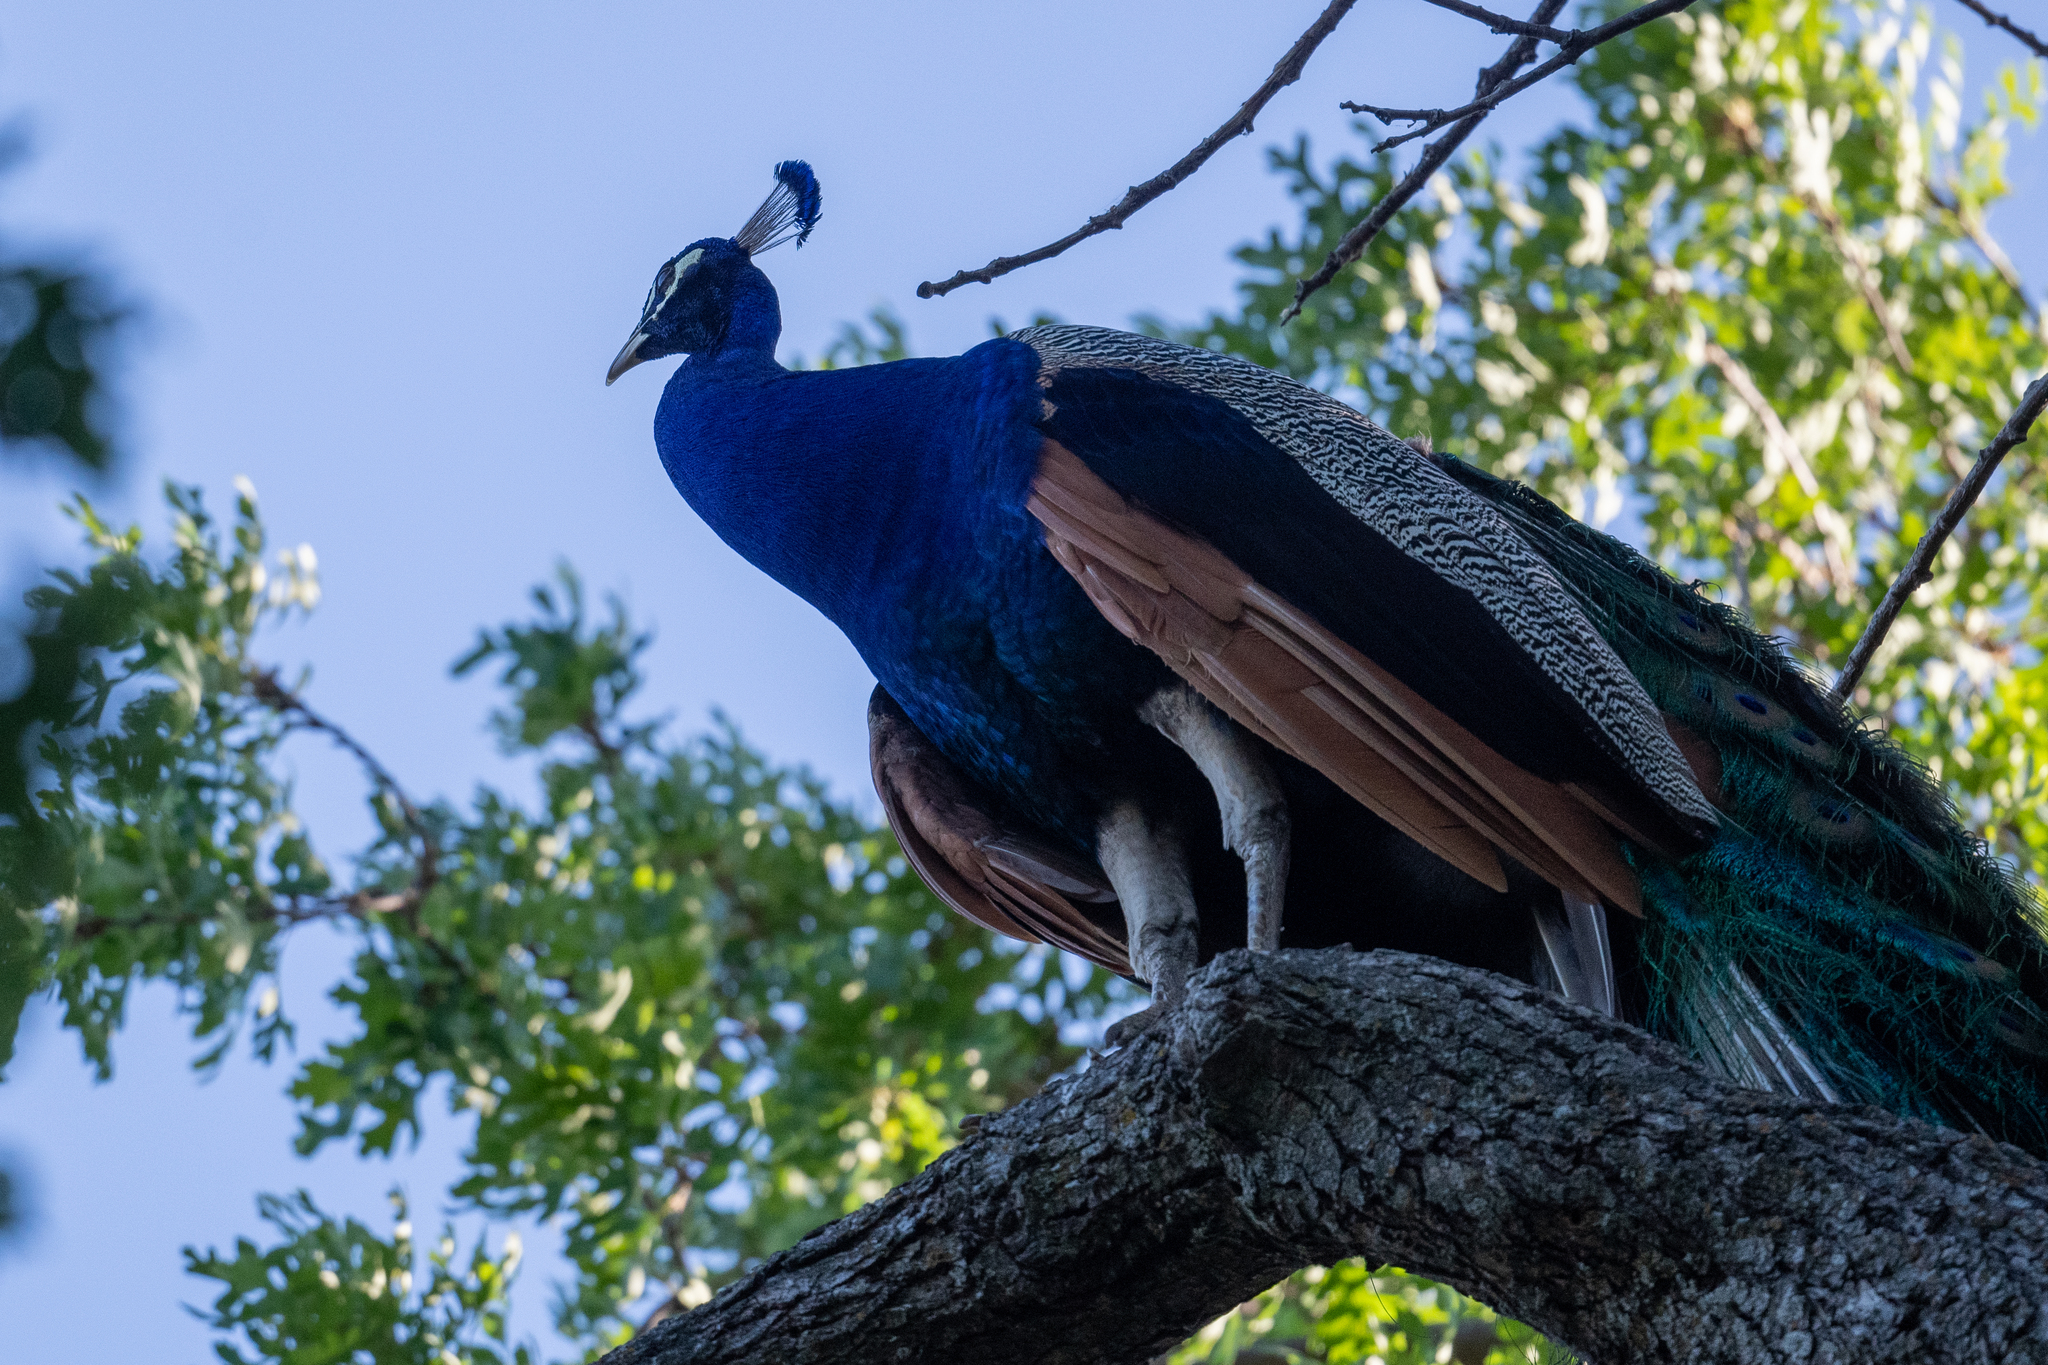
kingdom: Animalia
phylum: Chordata
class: Aves
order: Galliformes
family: Phasianidae
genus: Pavo
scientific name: Pavo cristatus
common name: Indian peafowl
